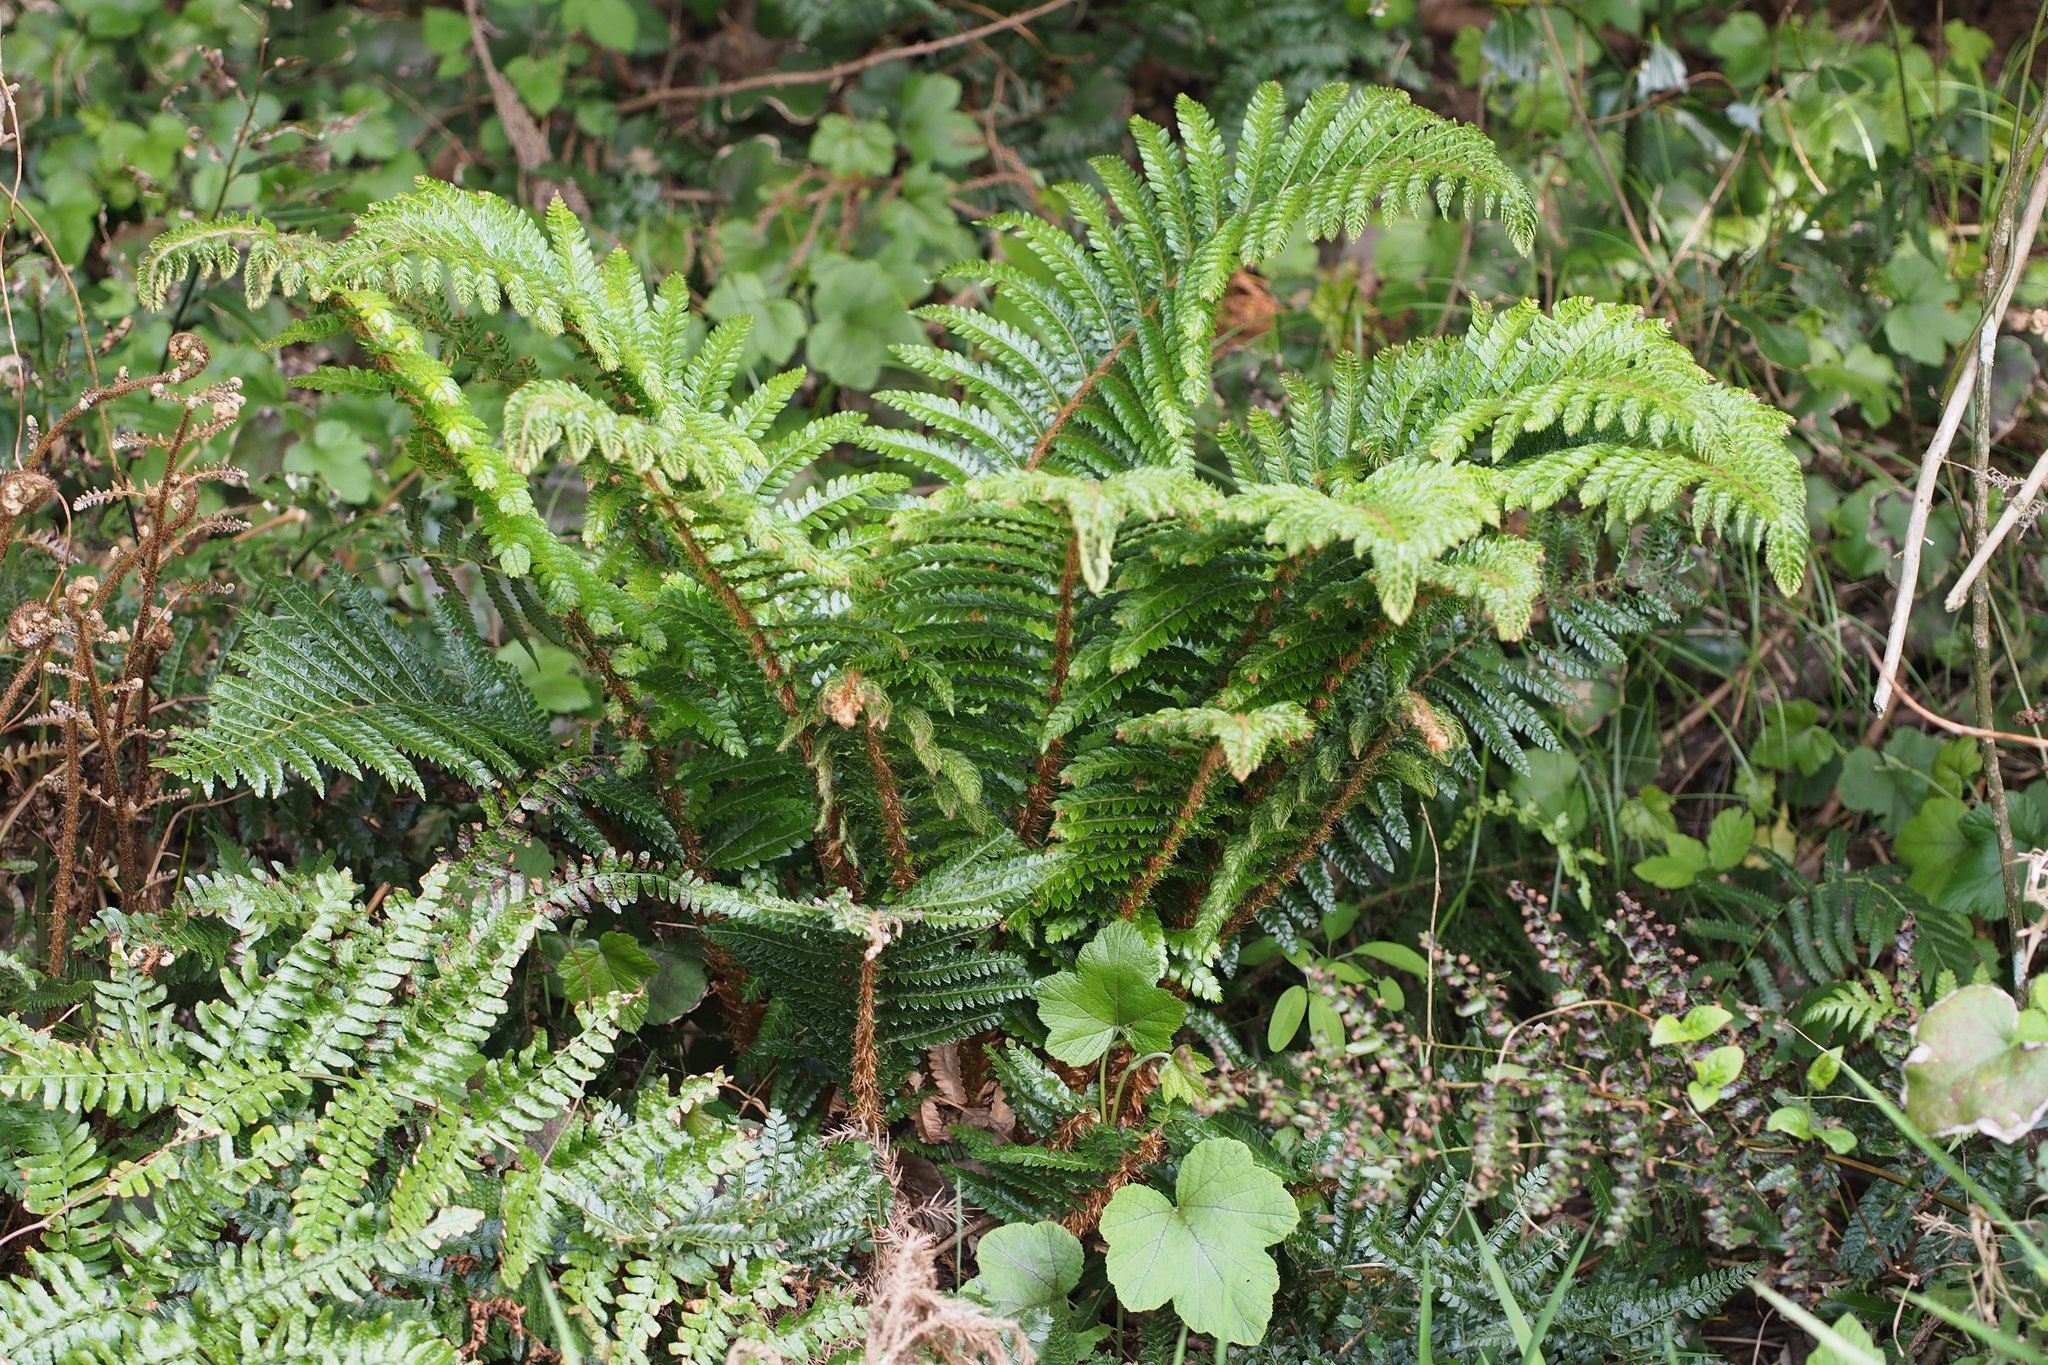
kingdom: Plantae
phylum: Tracheophyta
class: Polypodiopsida
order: Polypodiales
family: Dryopteridaceae
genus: Polystichum
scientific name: Polystichum luctuosum
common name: Korean rockfern
